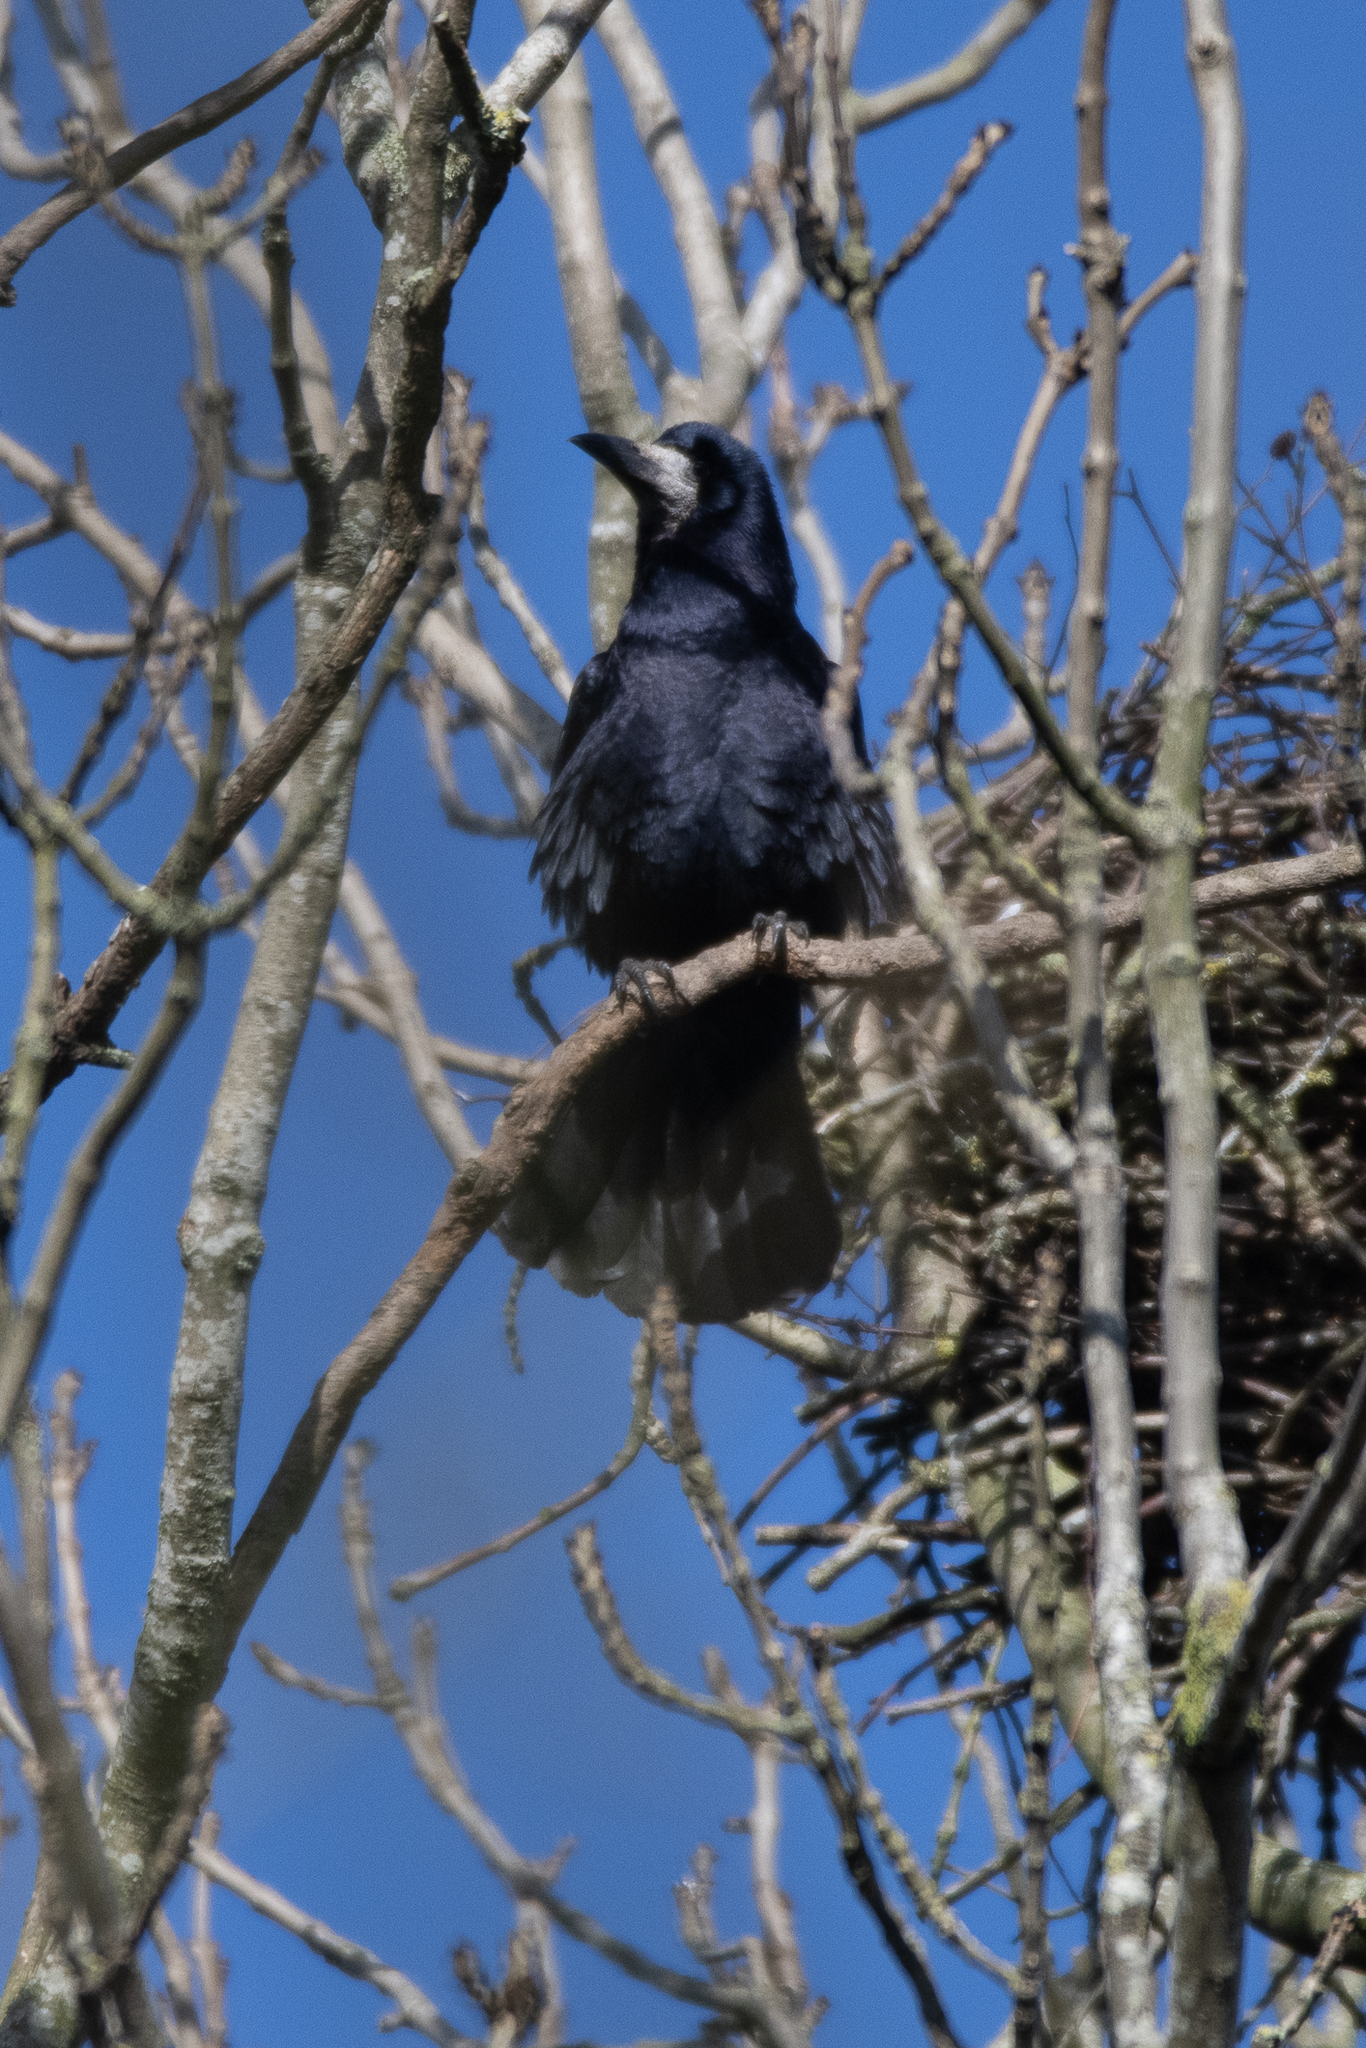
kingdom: Animalia
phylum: Chordata
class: Aves
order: Passeriformes
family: Corvidae
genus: Corvus
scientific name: Corvus frugilegus
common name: Rook
